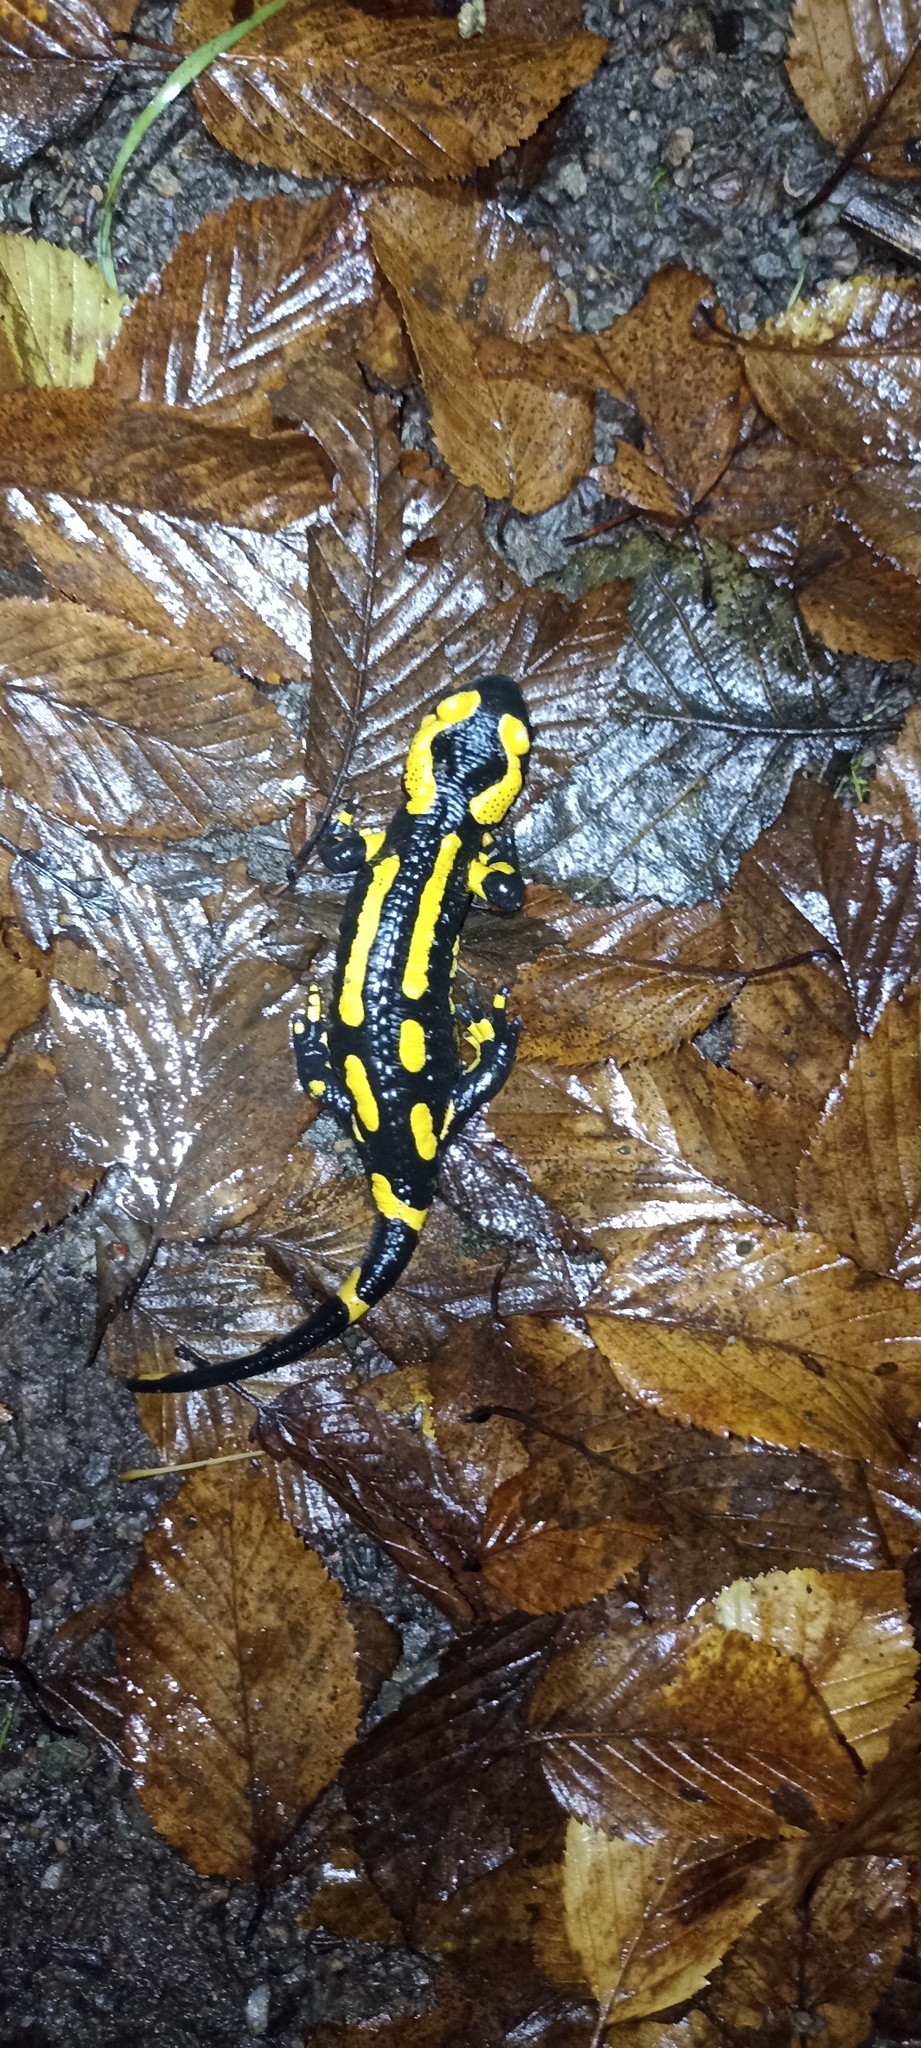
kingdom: Animalia
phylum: Chordata
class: Amphibia
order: Caudata
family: Salamandridae
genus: Salamandra
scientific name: Salamandra salamandra
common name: Fire salamander
